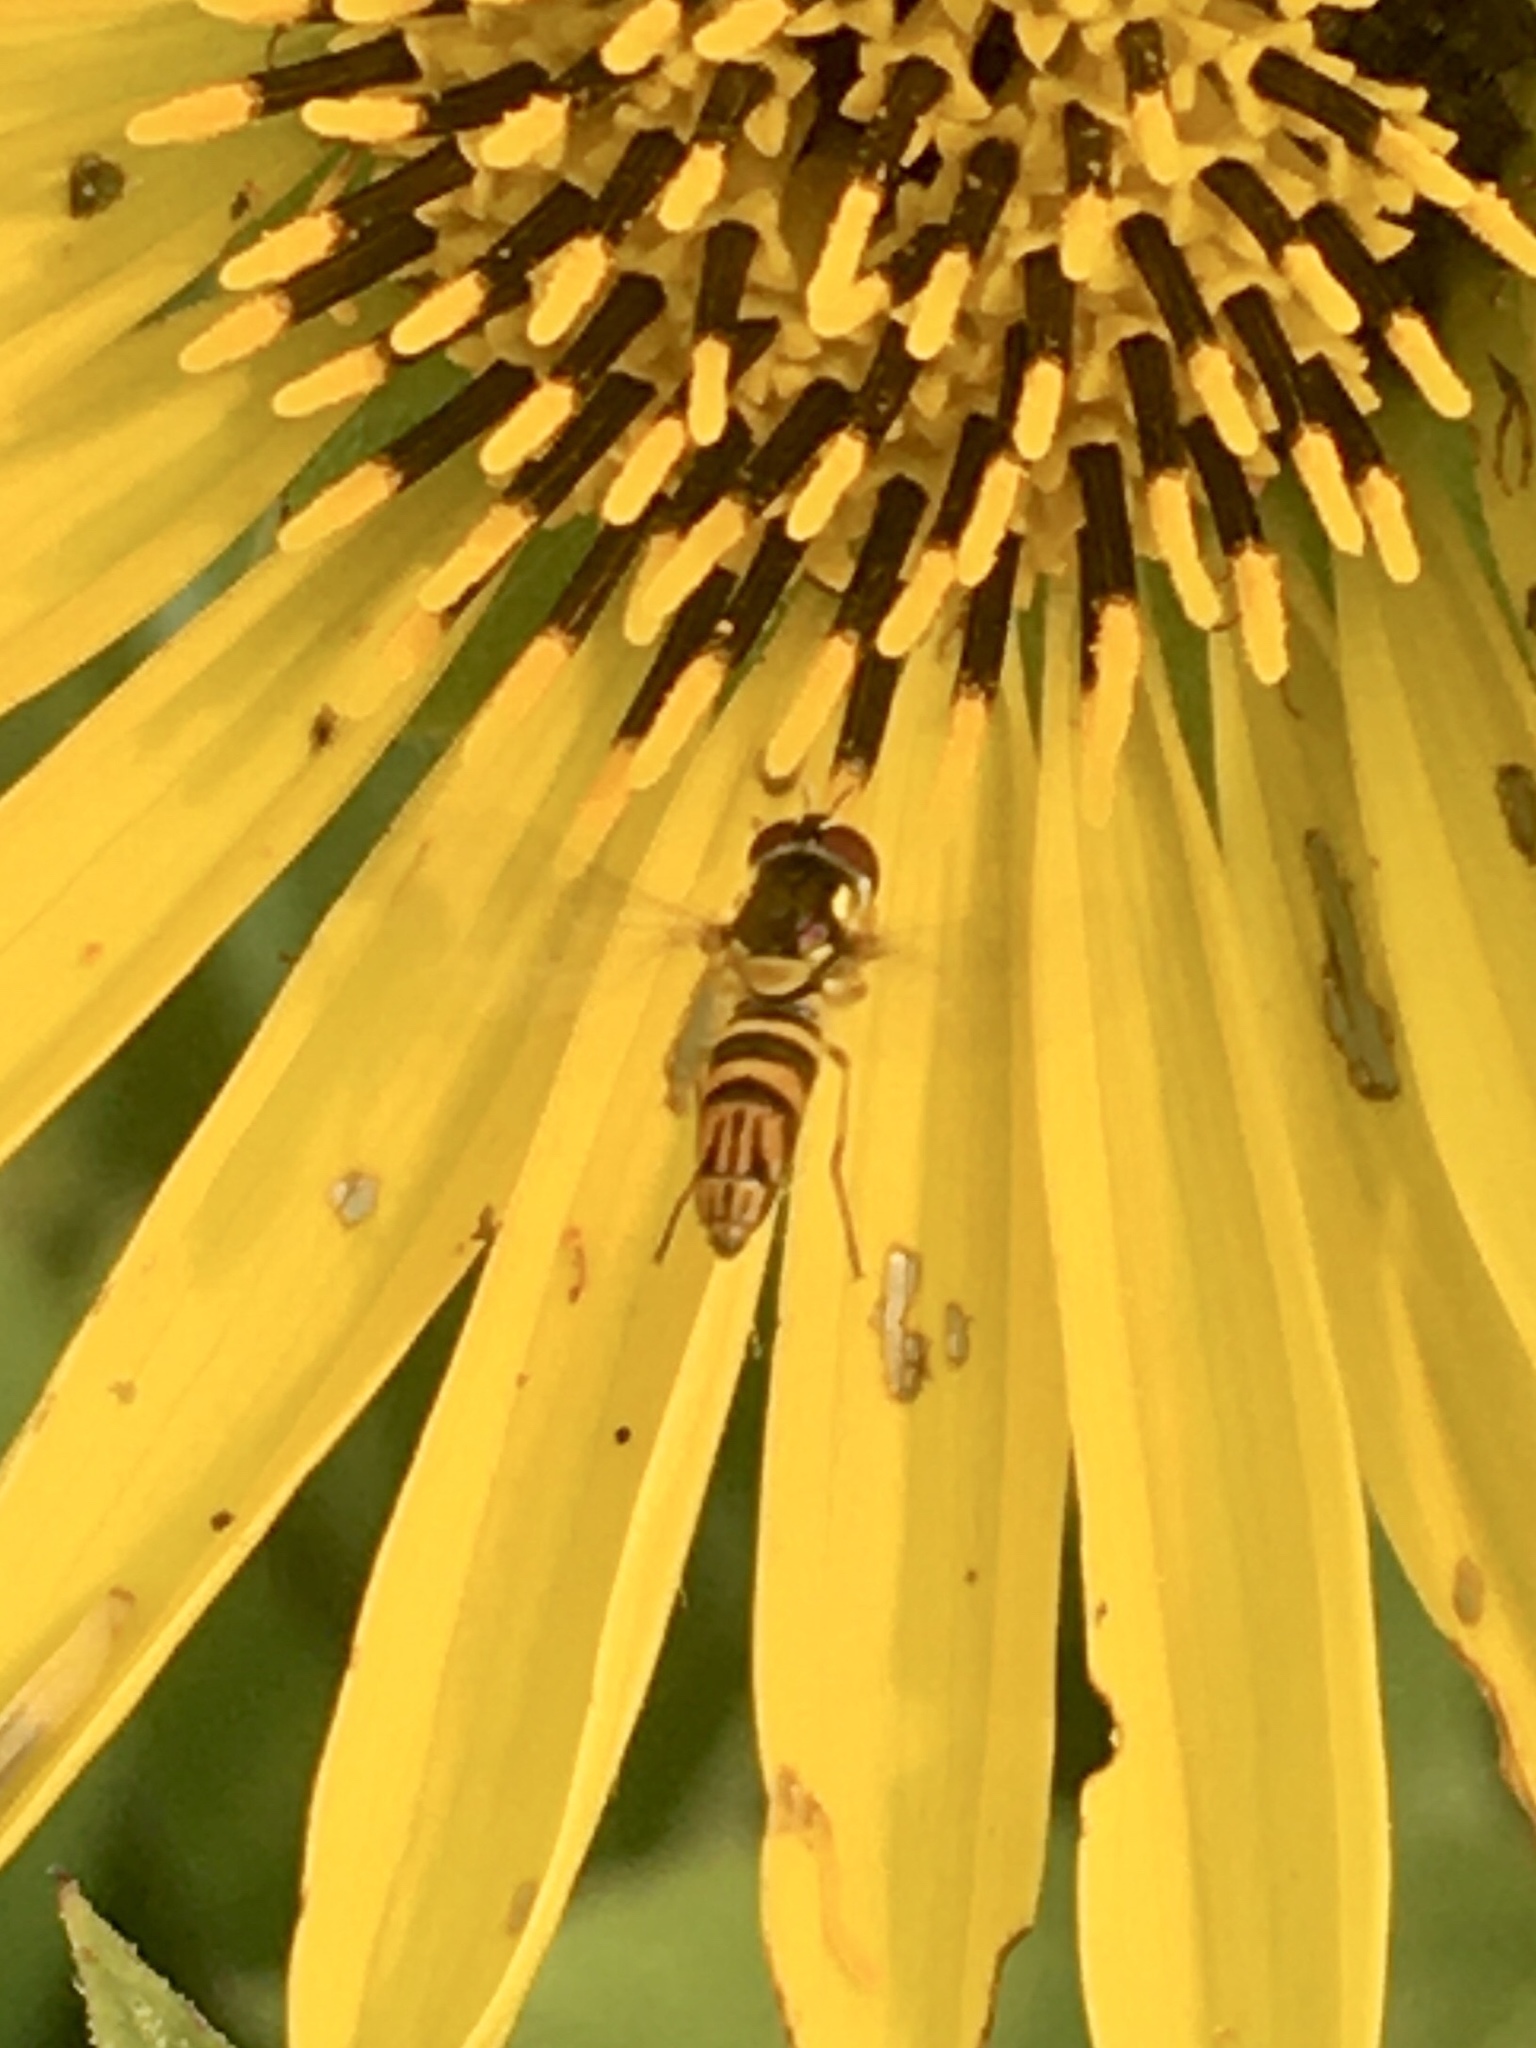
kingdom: Animalia
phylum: Arthropoda
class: Insecta
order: Diptera
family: Syrphidae
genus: Allograpta
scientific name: Allograpta obliqua
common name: Common oblique syrphid
